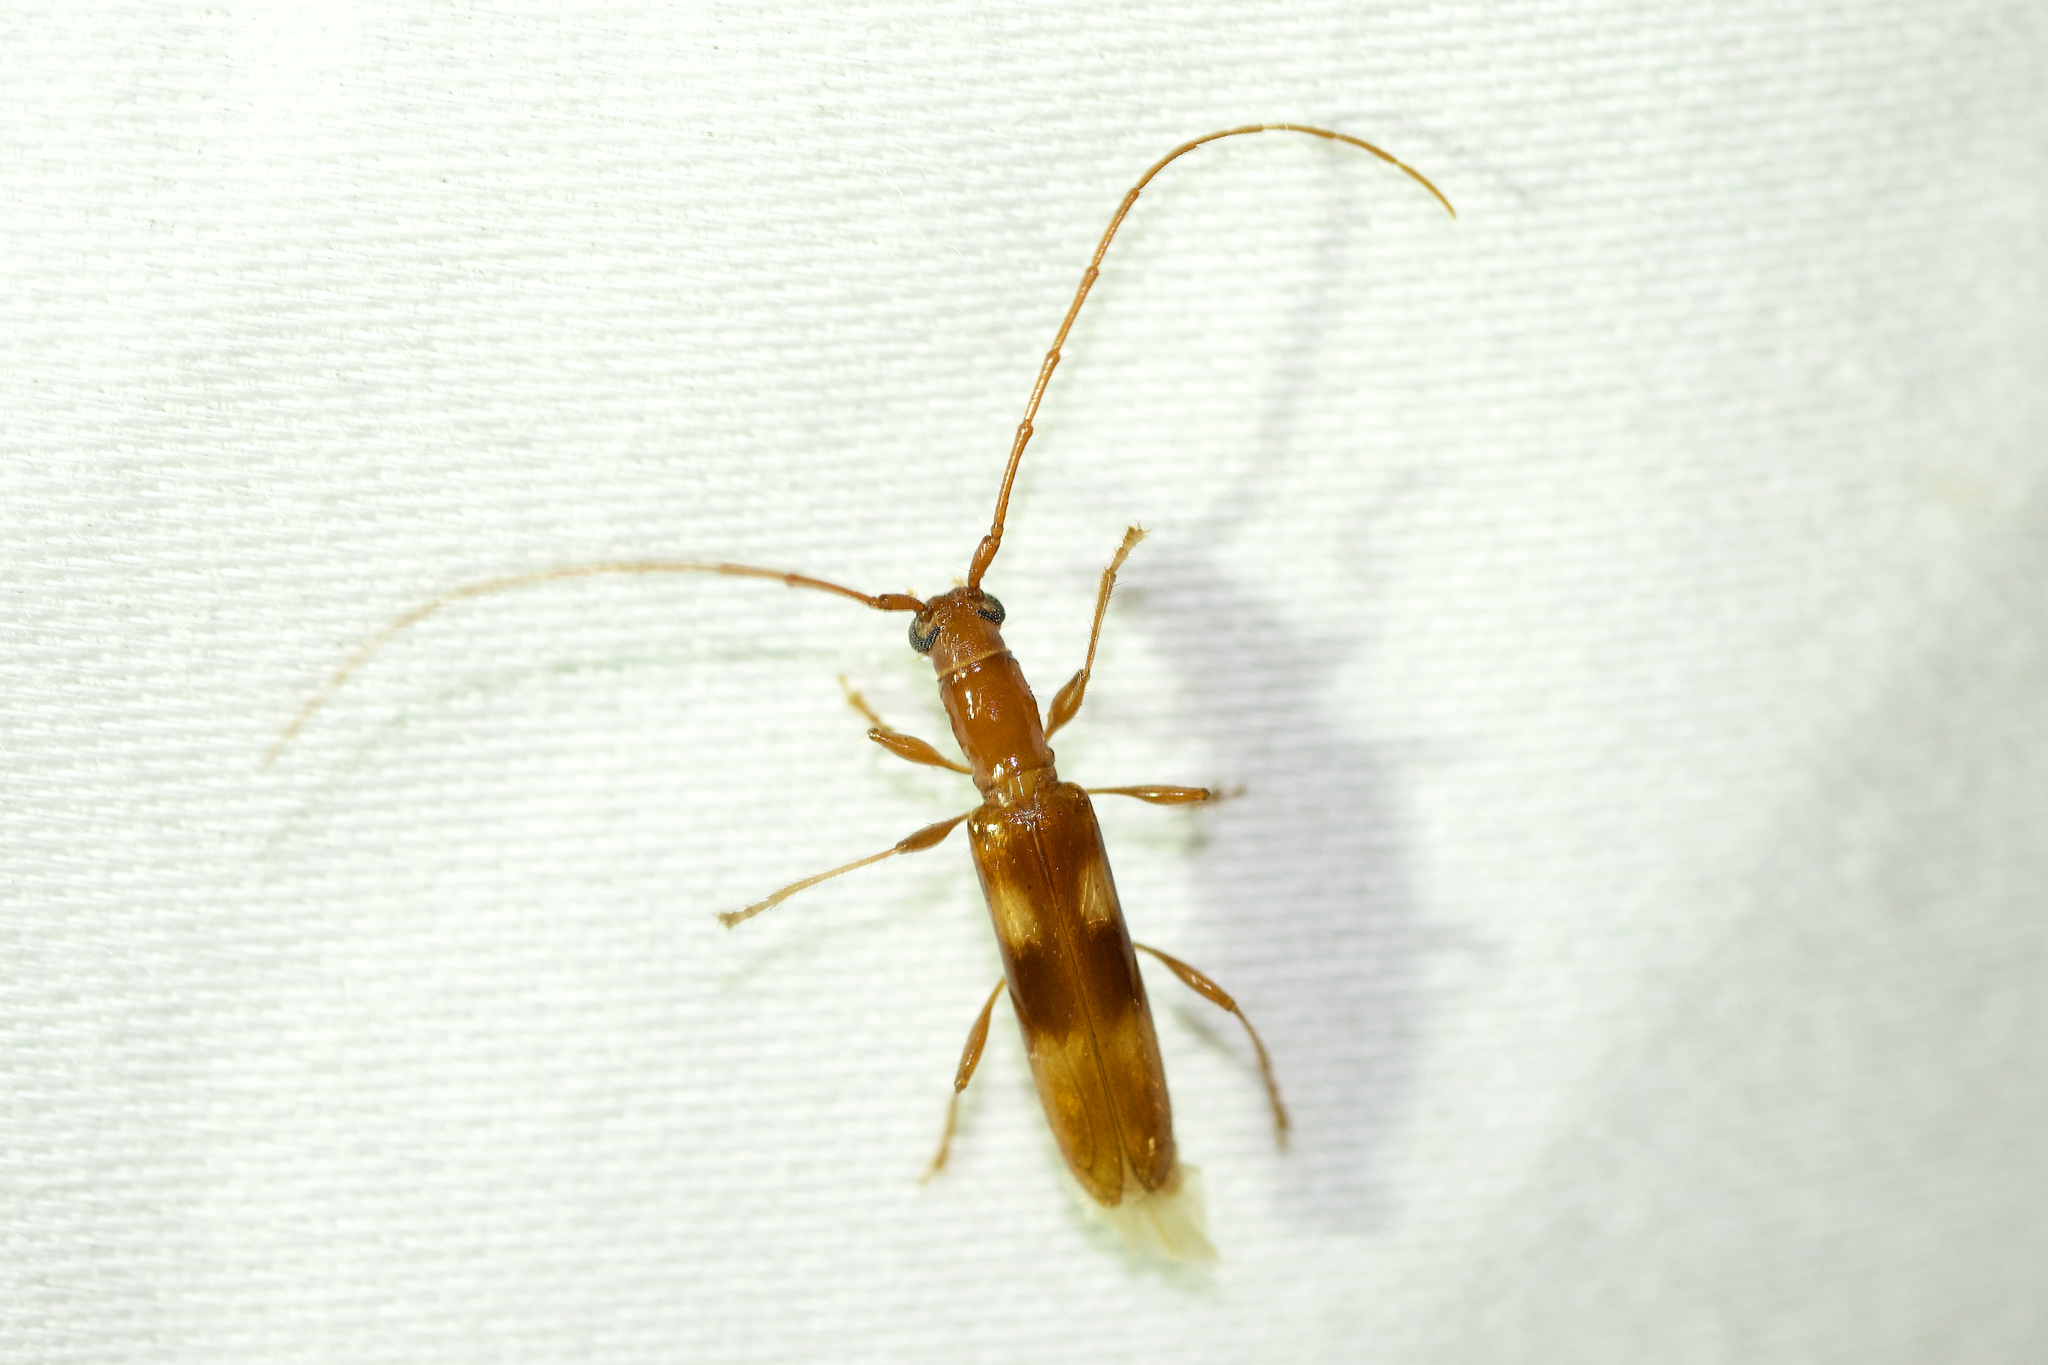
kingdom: Animalia
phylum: Arthropoda
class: Insecta
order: Coleoptera
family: Cerambycidae
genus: Heterachthes
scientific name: Heterachthes quadrimaculatus
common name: Four-spotted hickory borer
